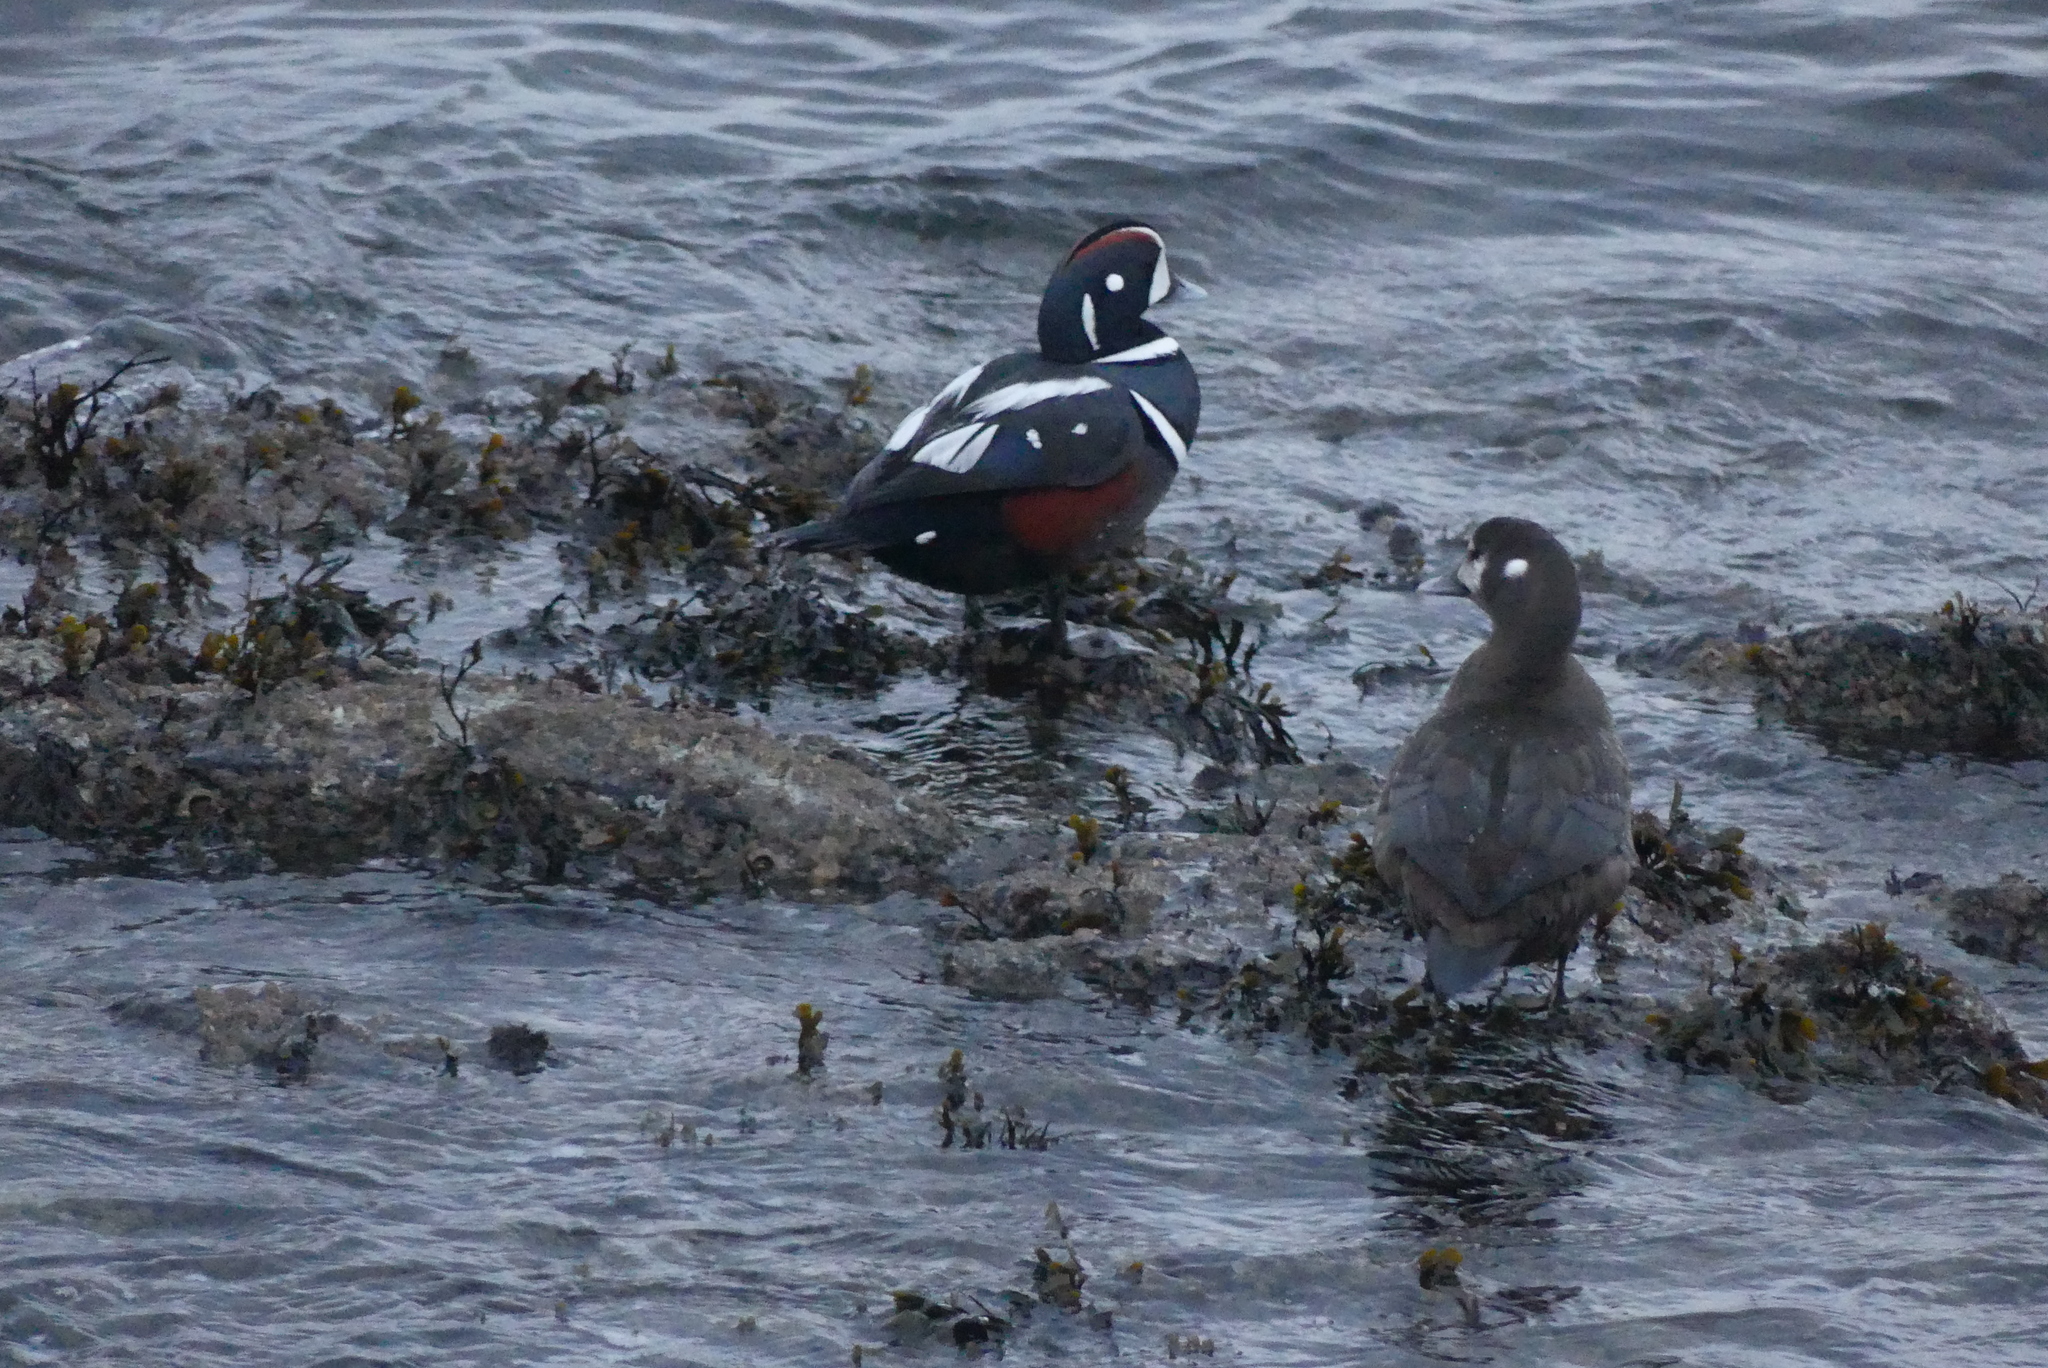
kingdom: Animalia
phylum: Chordata
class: Aves
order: Anseriformes
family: Anatidae
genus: Histrionicus
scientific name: Histrionicus histrionicus
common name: Harlequin duck
